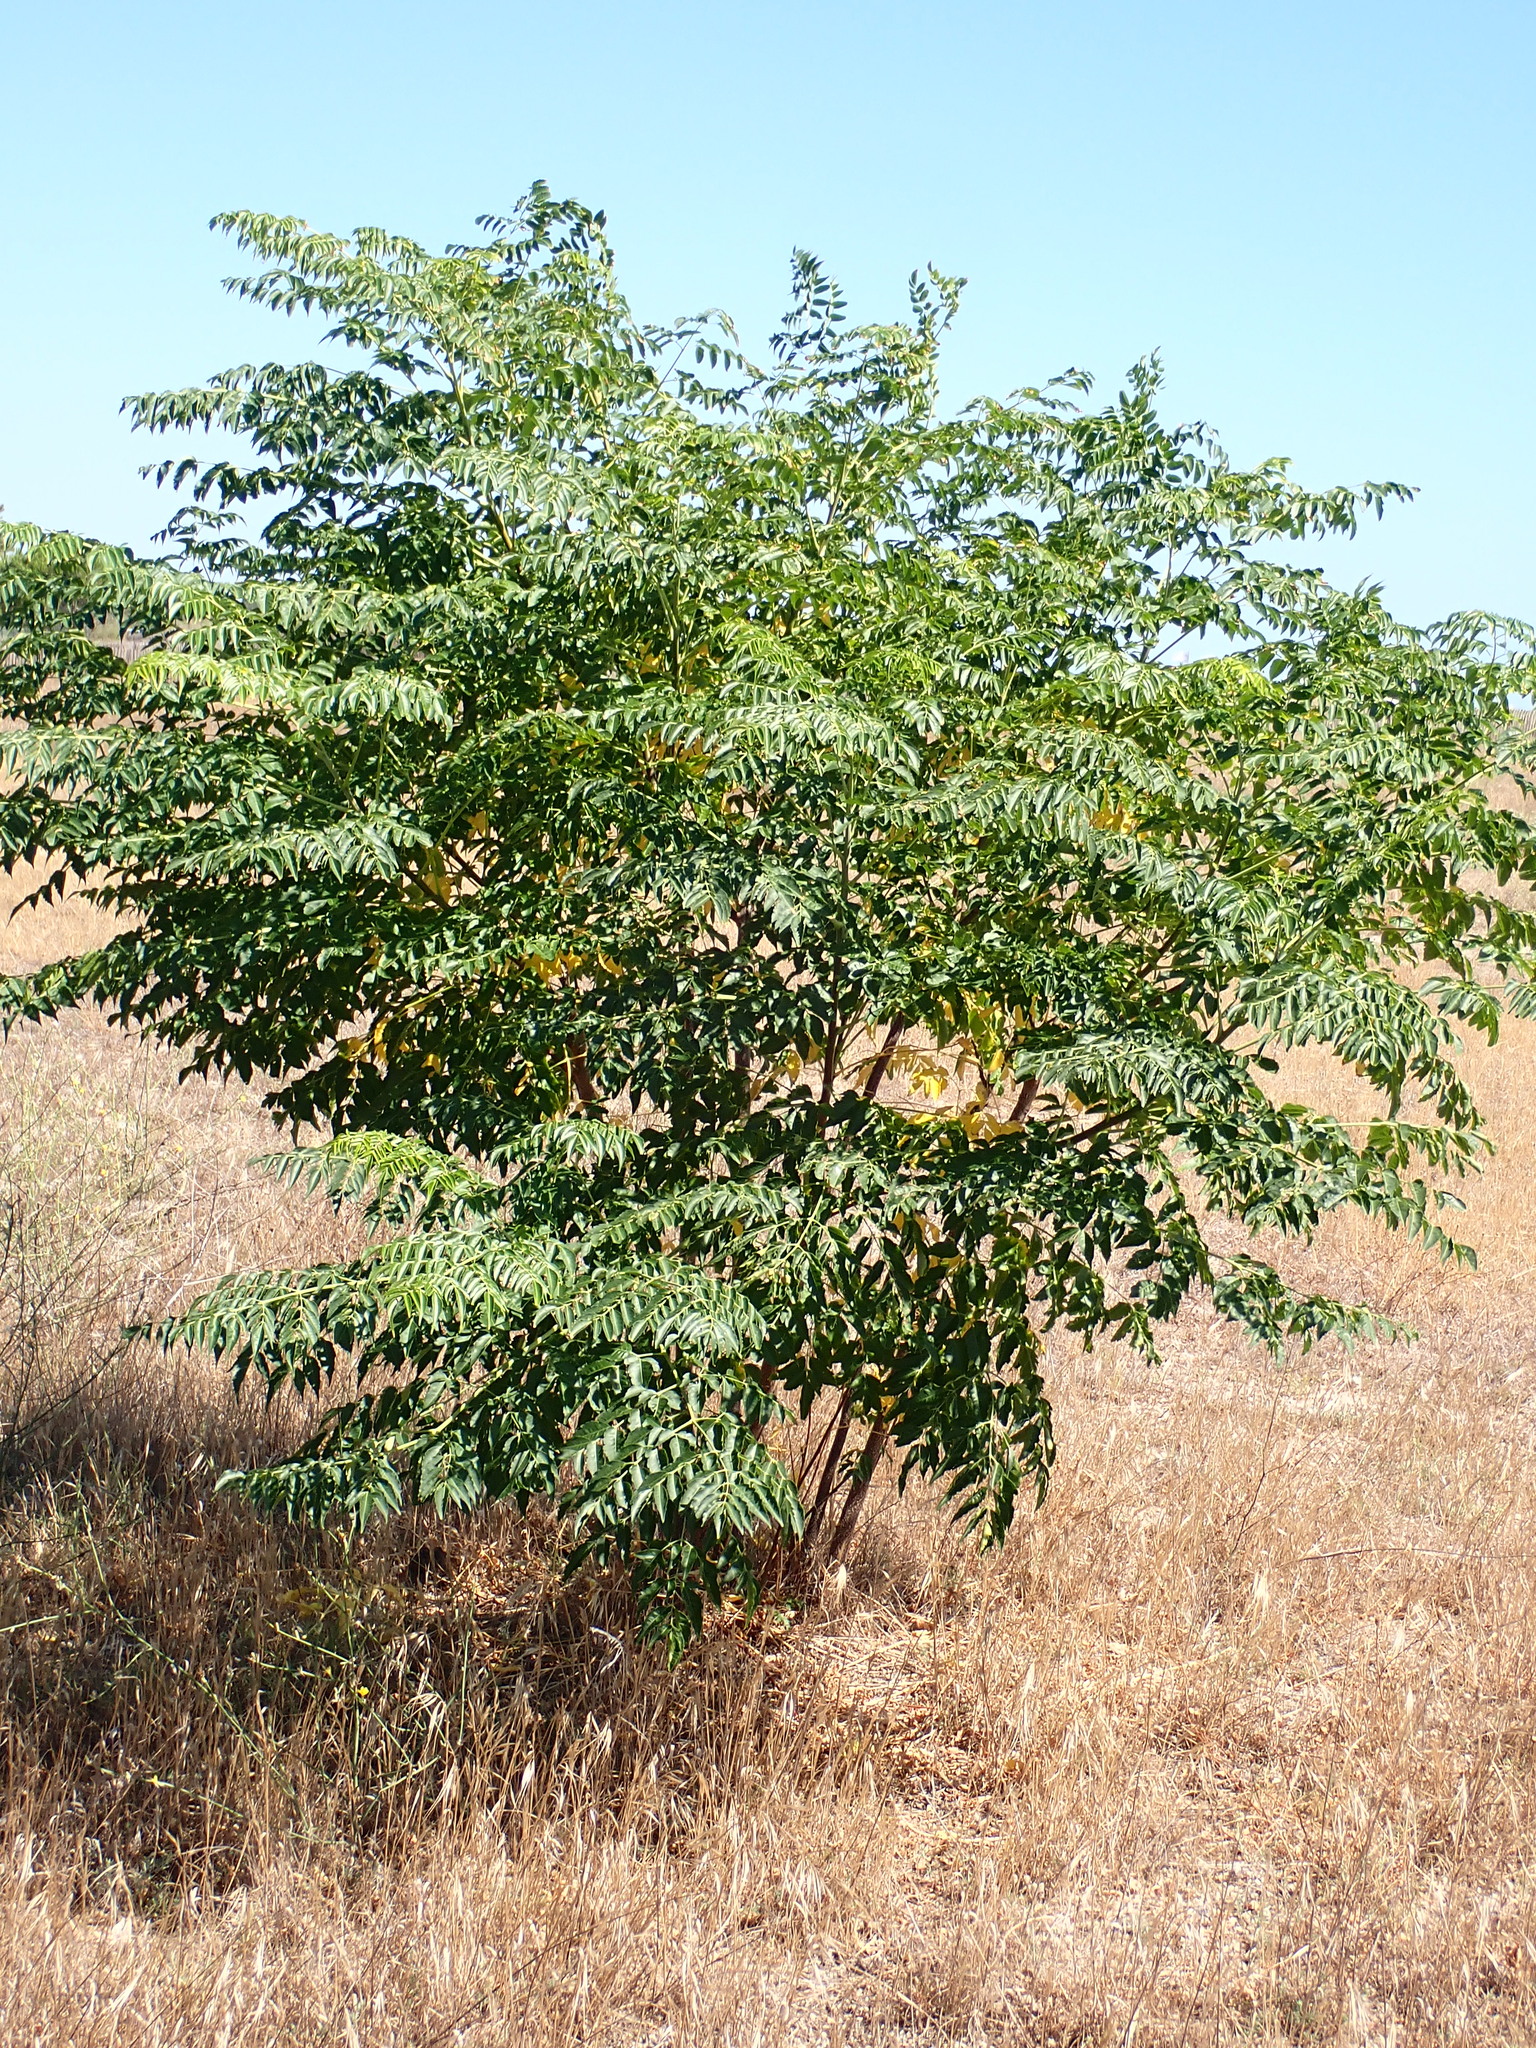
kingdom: Plantae
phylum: Tracheophyta
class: Magnoliopsida
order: Sapindales
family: Meliaceae
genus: Melia
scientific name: Melia azedarach
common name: Chinaberrytree
